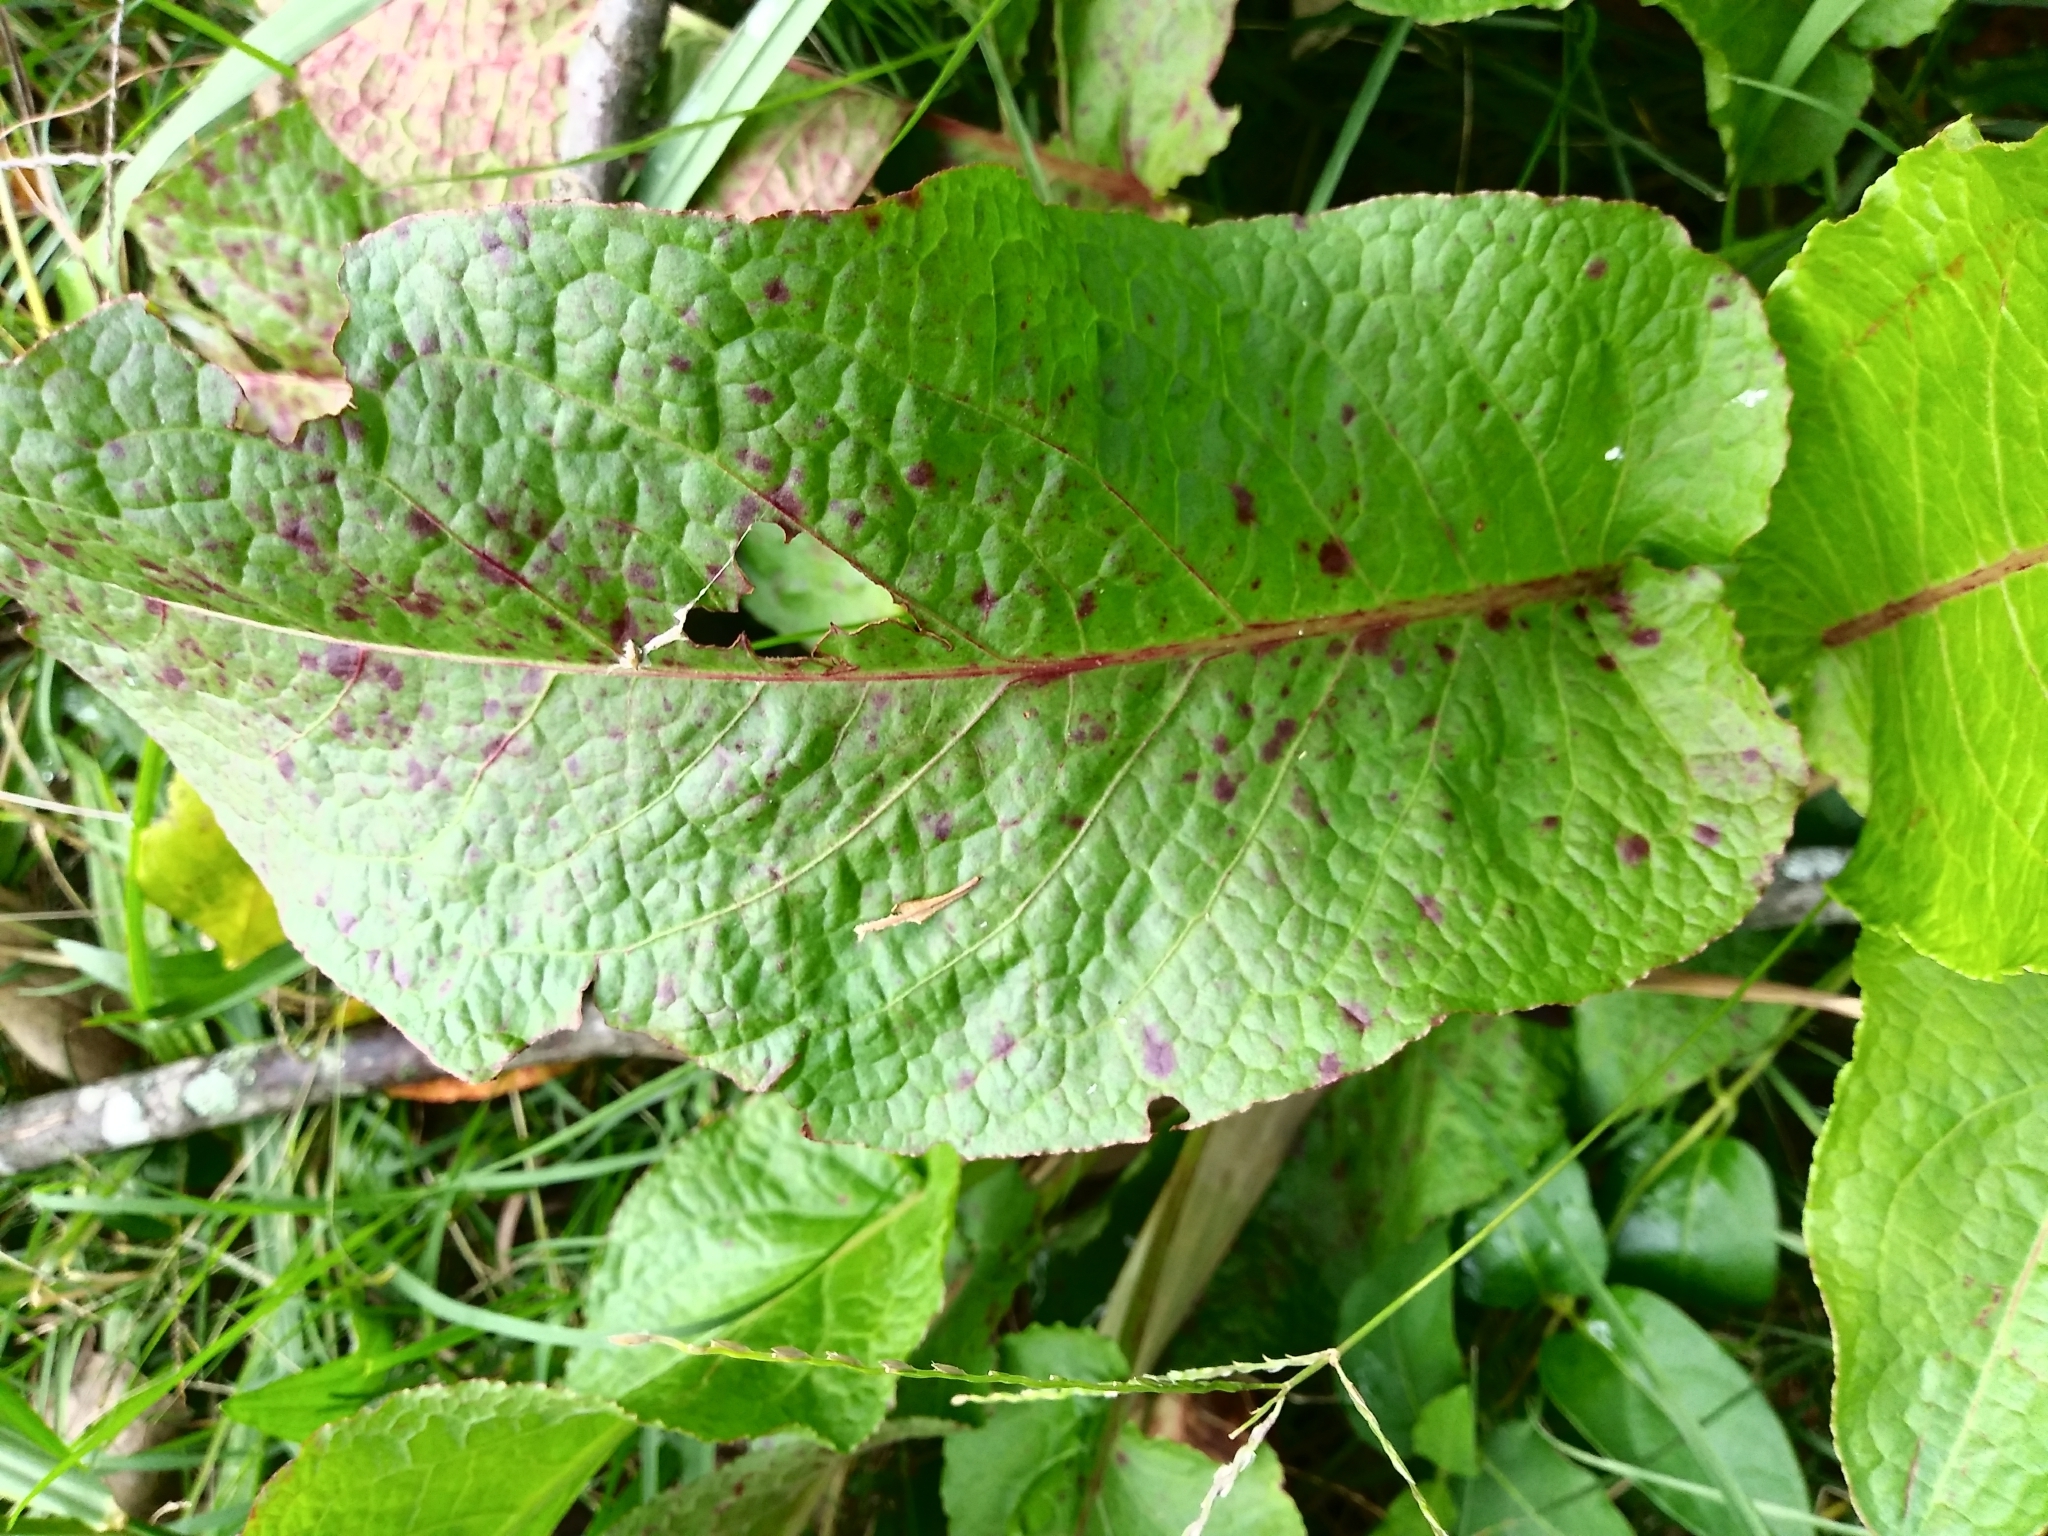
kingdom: Plantae
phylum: Tracheophyta
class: Magnoliopsida
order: Caryophyllales
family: Polygonaceae
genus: Rumex
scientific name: Rumex obtusifolius
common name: Bitter dock
